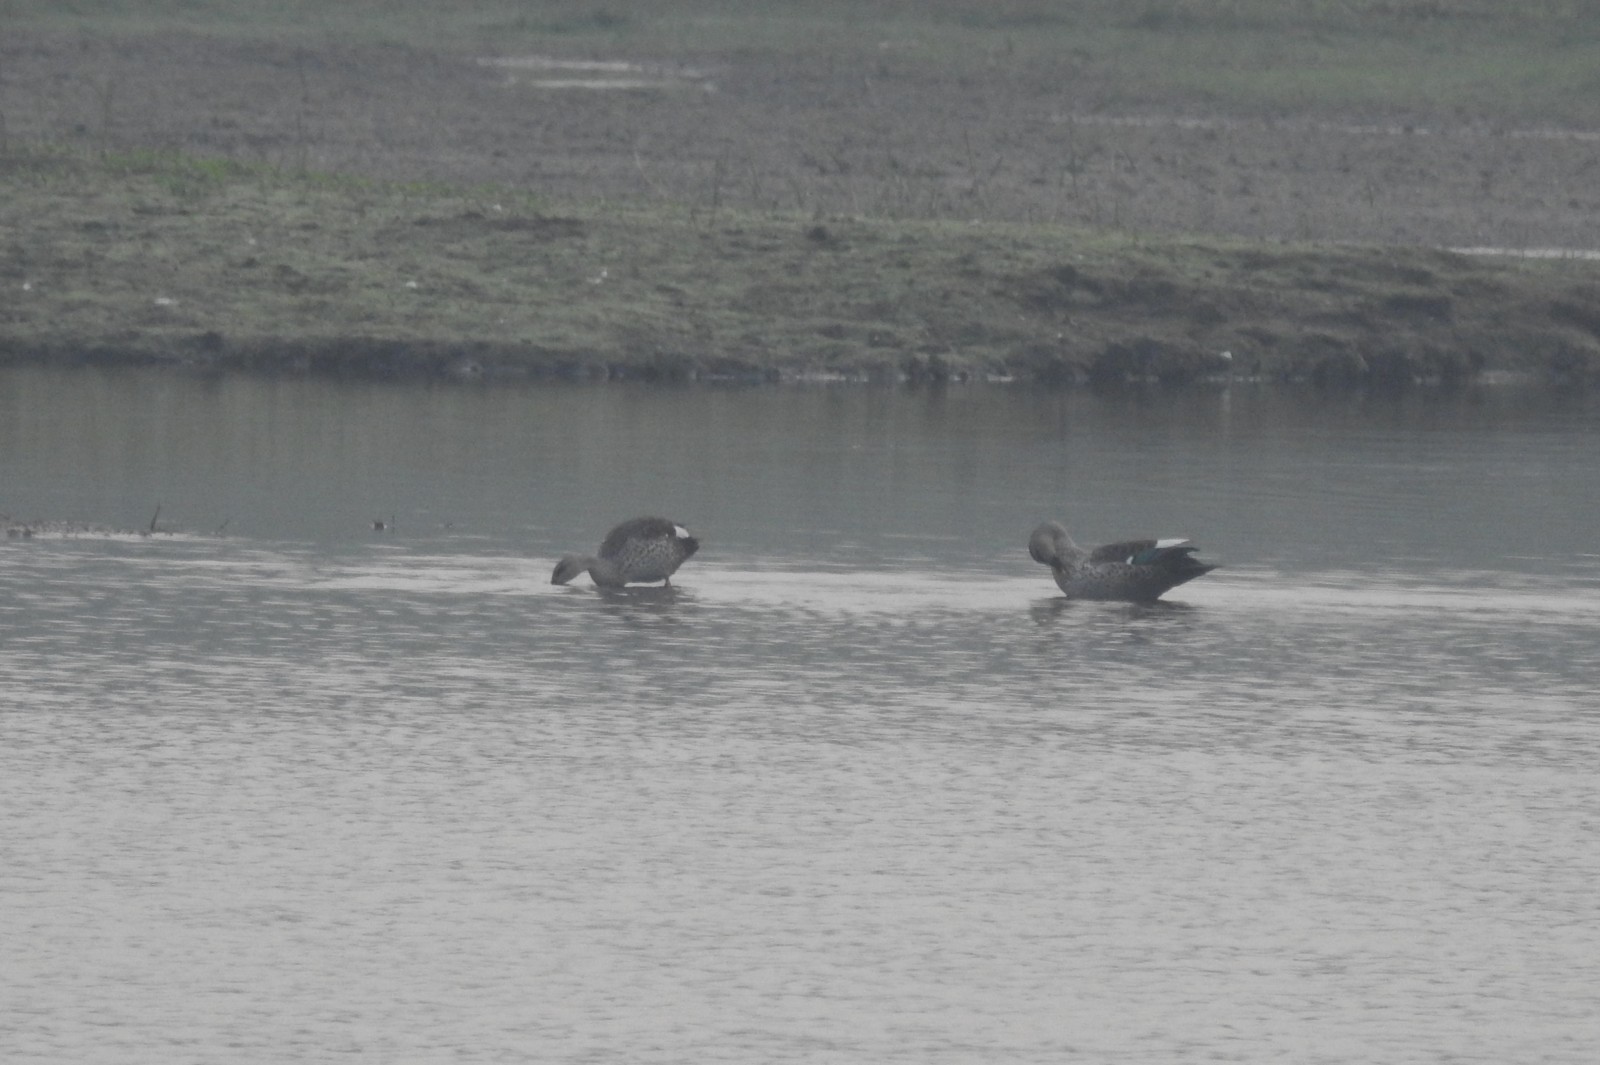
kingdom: Animalia
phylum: Chordata
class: Aves
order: Anseriformes
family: Anatidae
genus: Anas
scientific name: Anas poecilorhyncha
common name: Indian spot-billed duck
